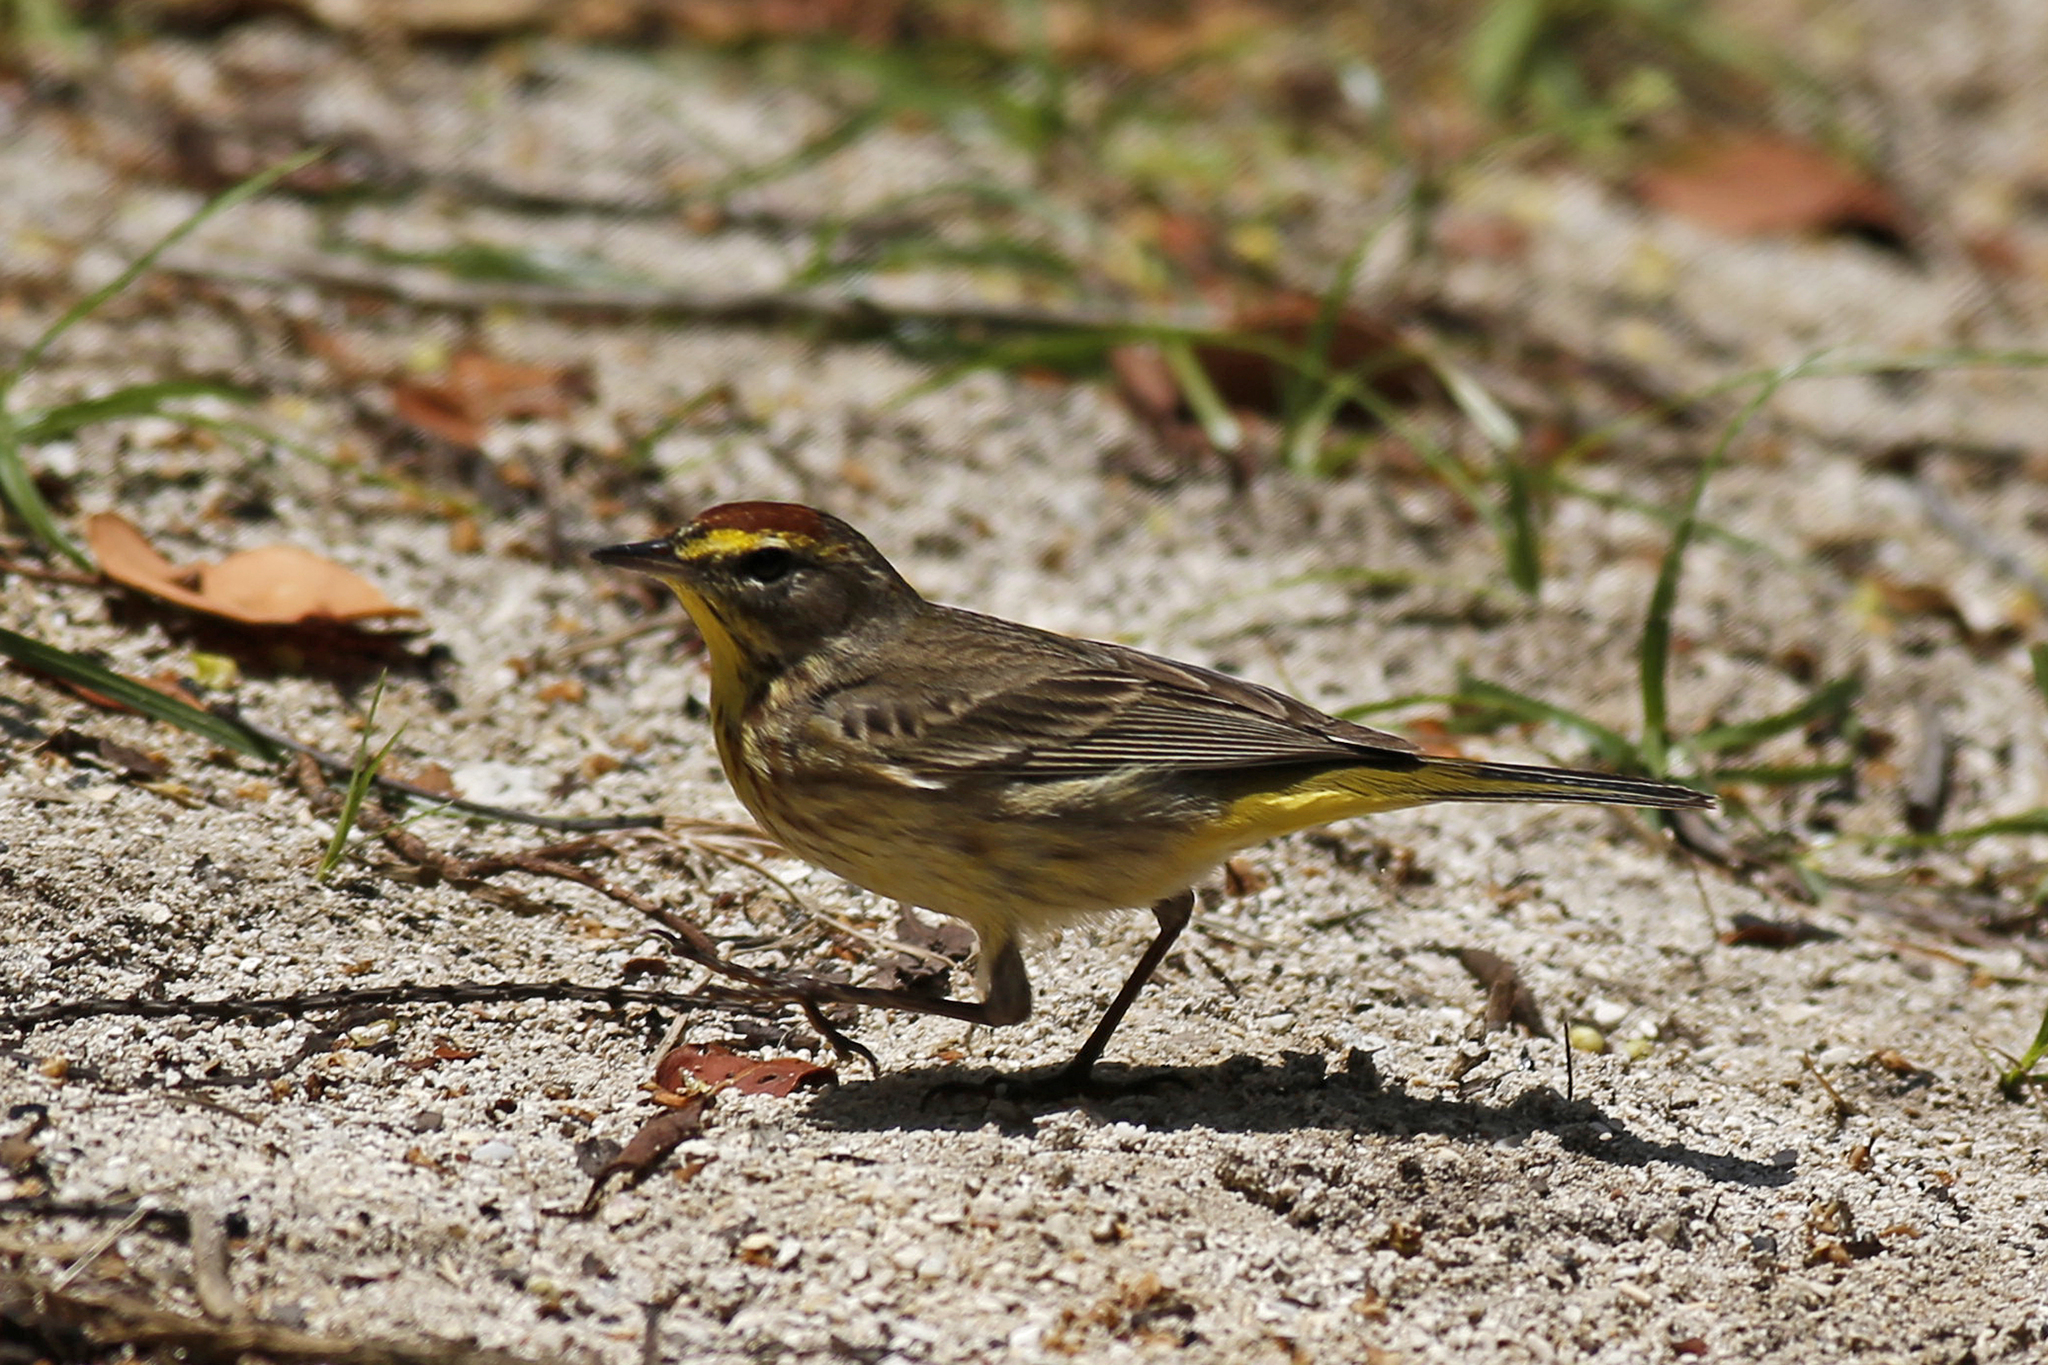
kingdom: Animalia
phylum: Chordata
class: Aves
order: Passeriformes
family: Parulidae
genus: Setophaga
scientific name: Setophaga palmarum
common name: Palm warbler
